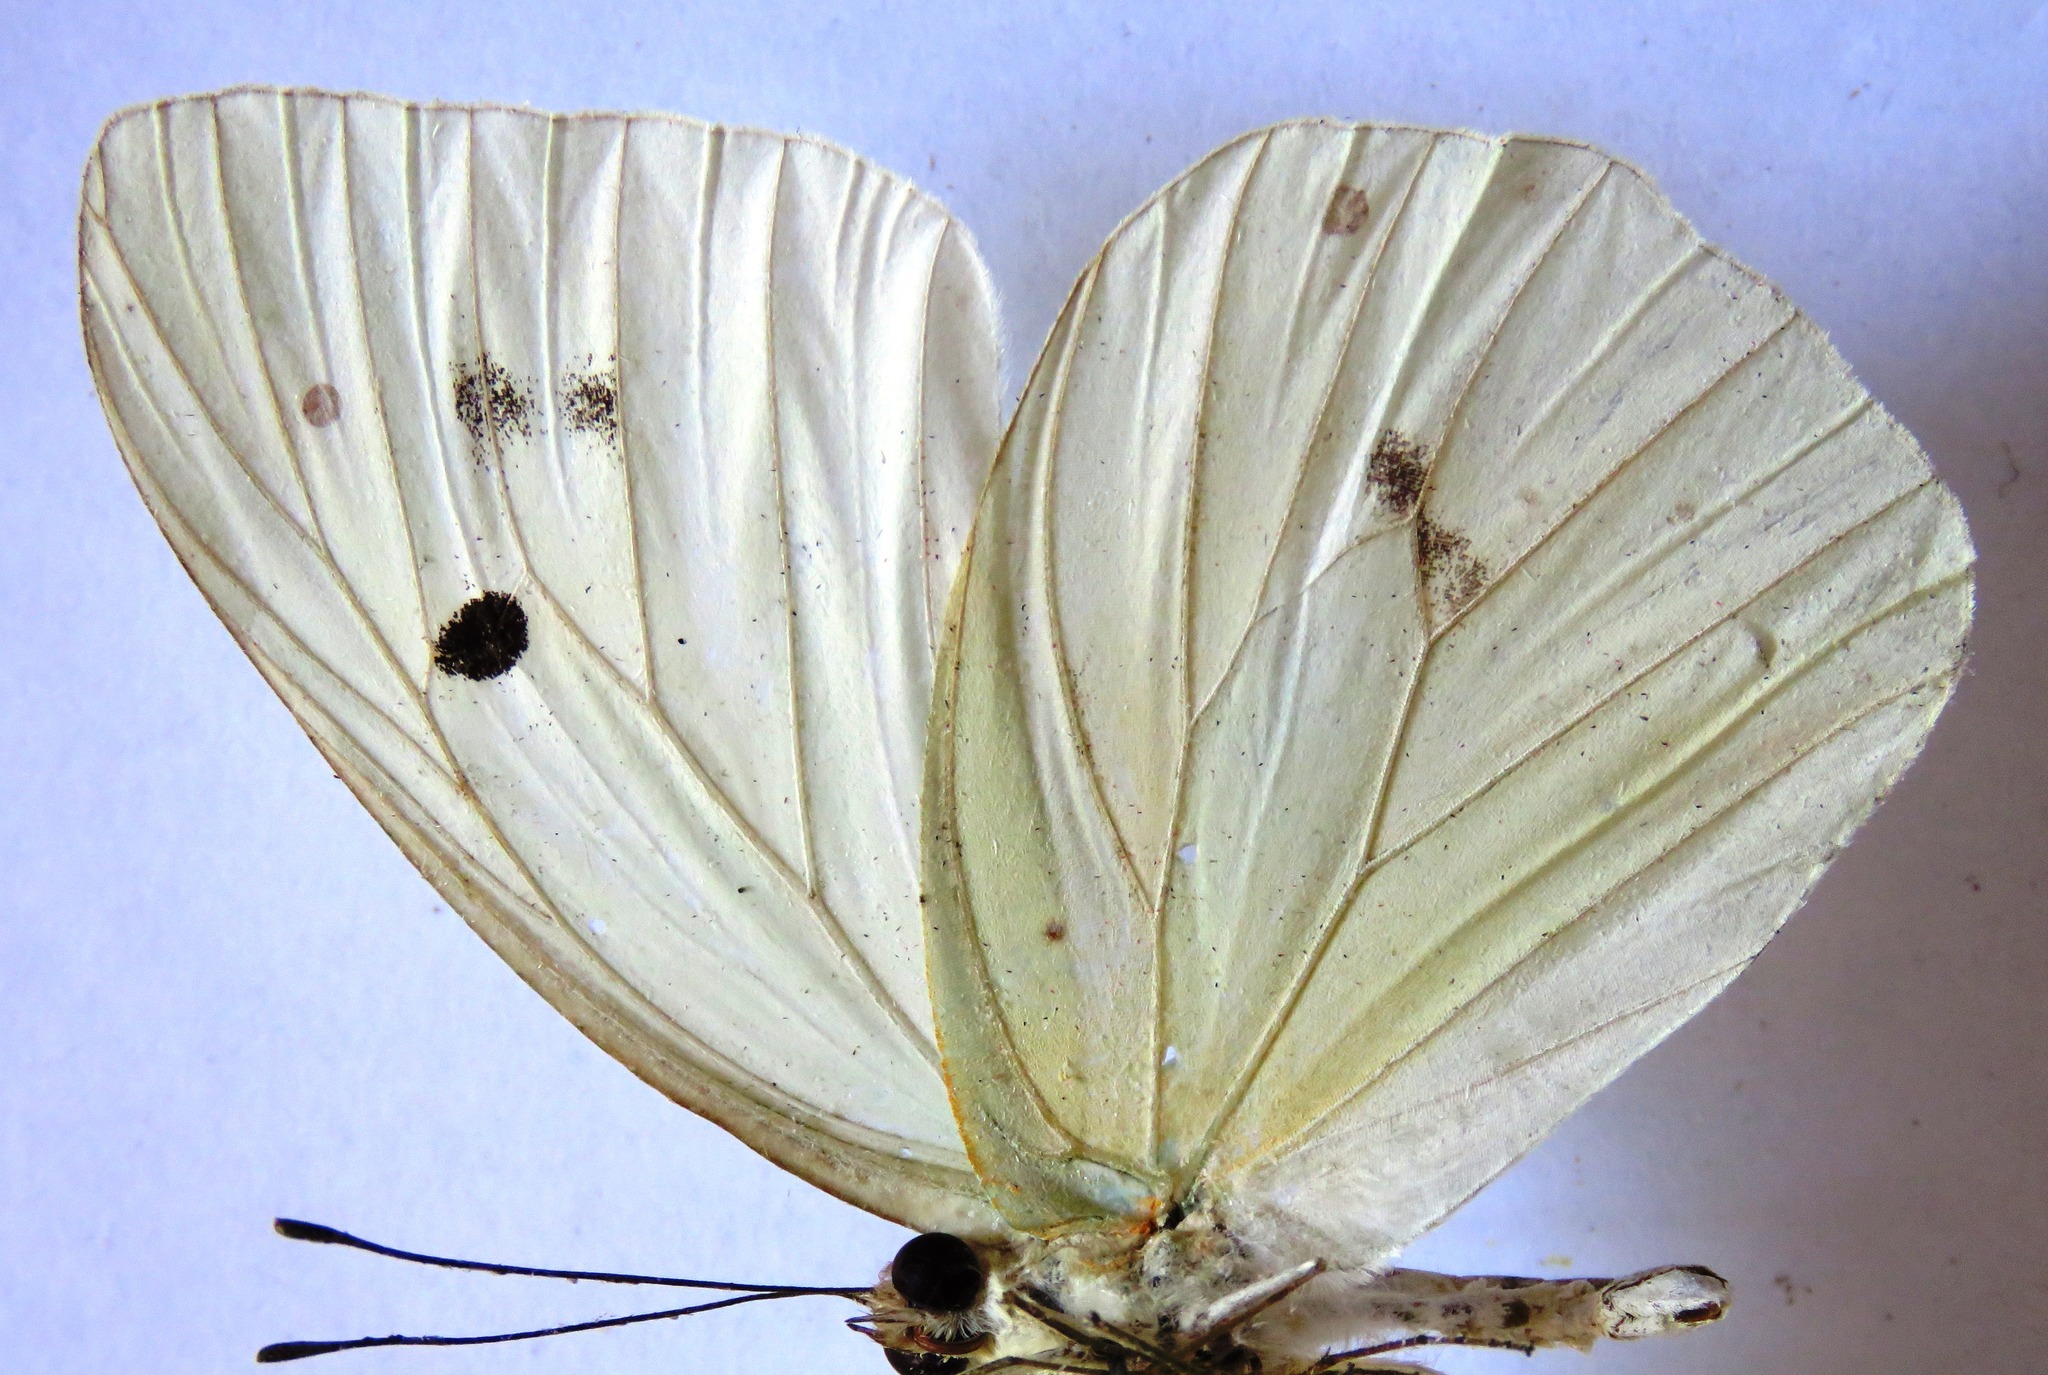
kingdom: Animalia
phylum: Arthropoda
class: Insecta
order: Lepidoptera
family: Pieridae
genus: Ganyra
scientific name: Ganyra josephina
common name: Giant white
